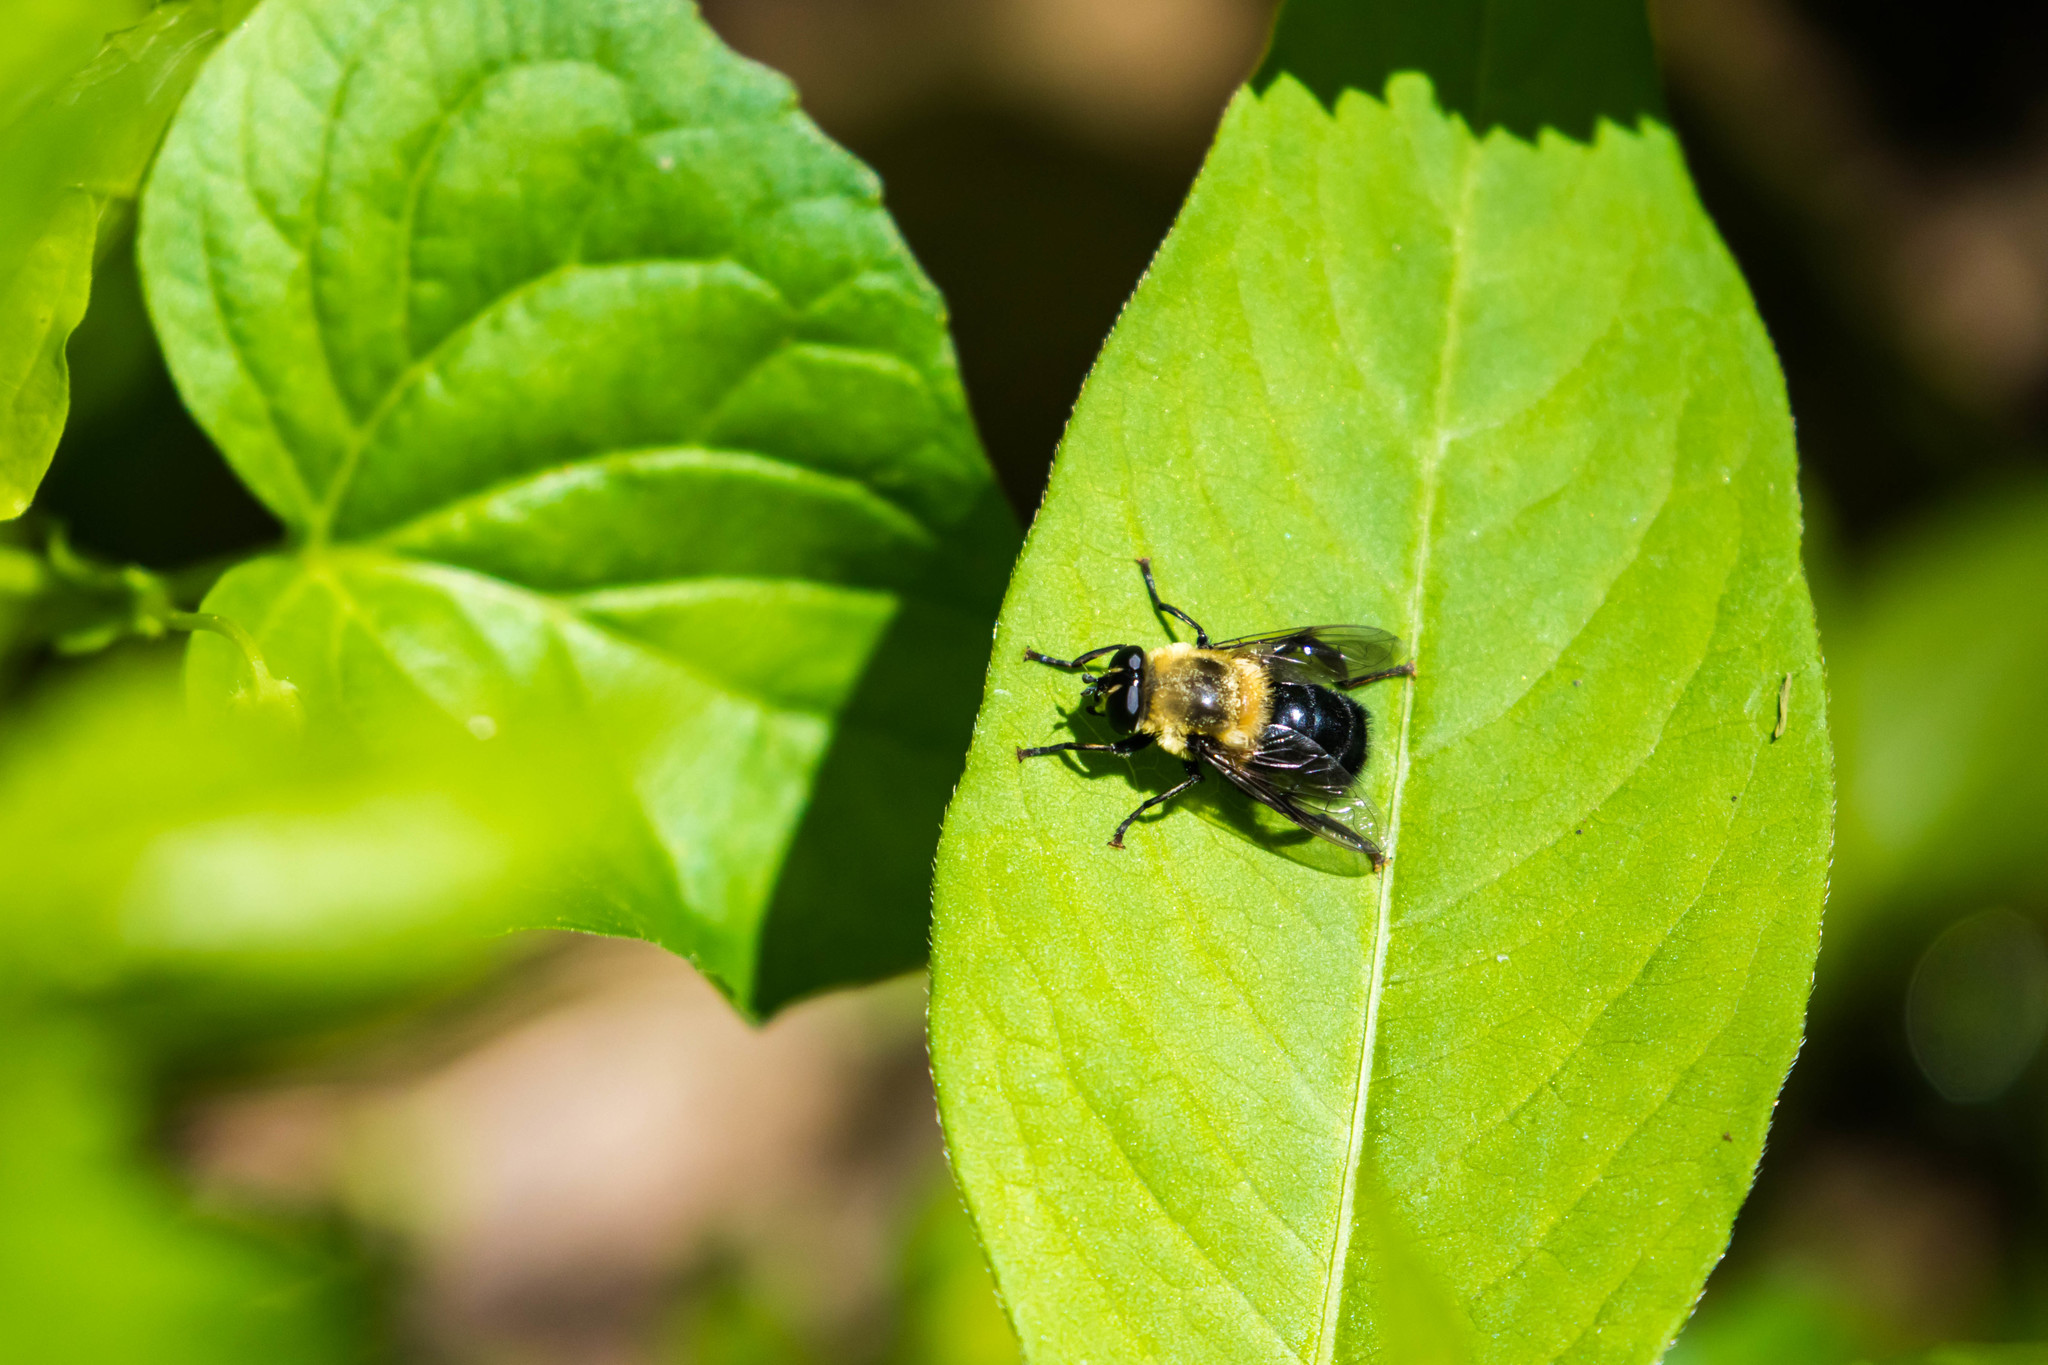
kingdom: Animalia
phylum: Arthropoda
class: Insecta
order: Diptera
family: Syrphidae
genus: Imatisma
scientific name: Imatisma bautias
